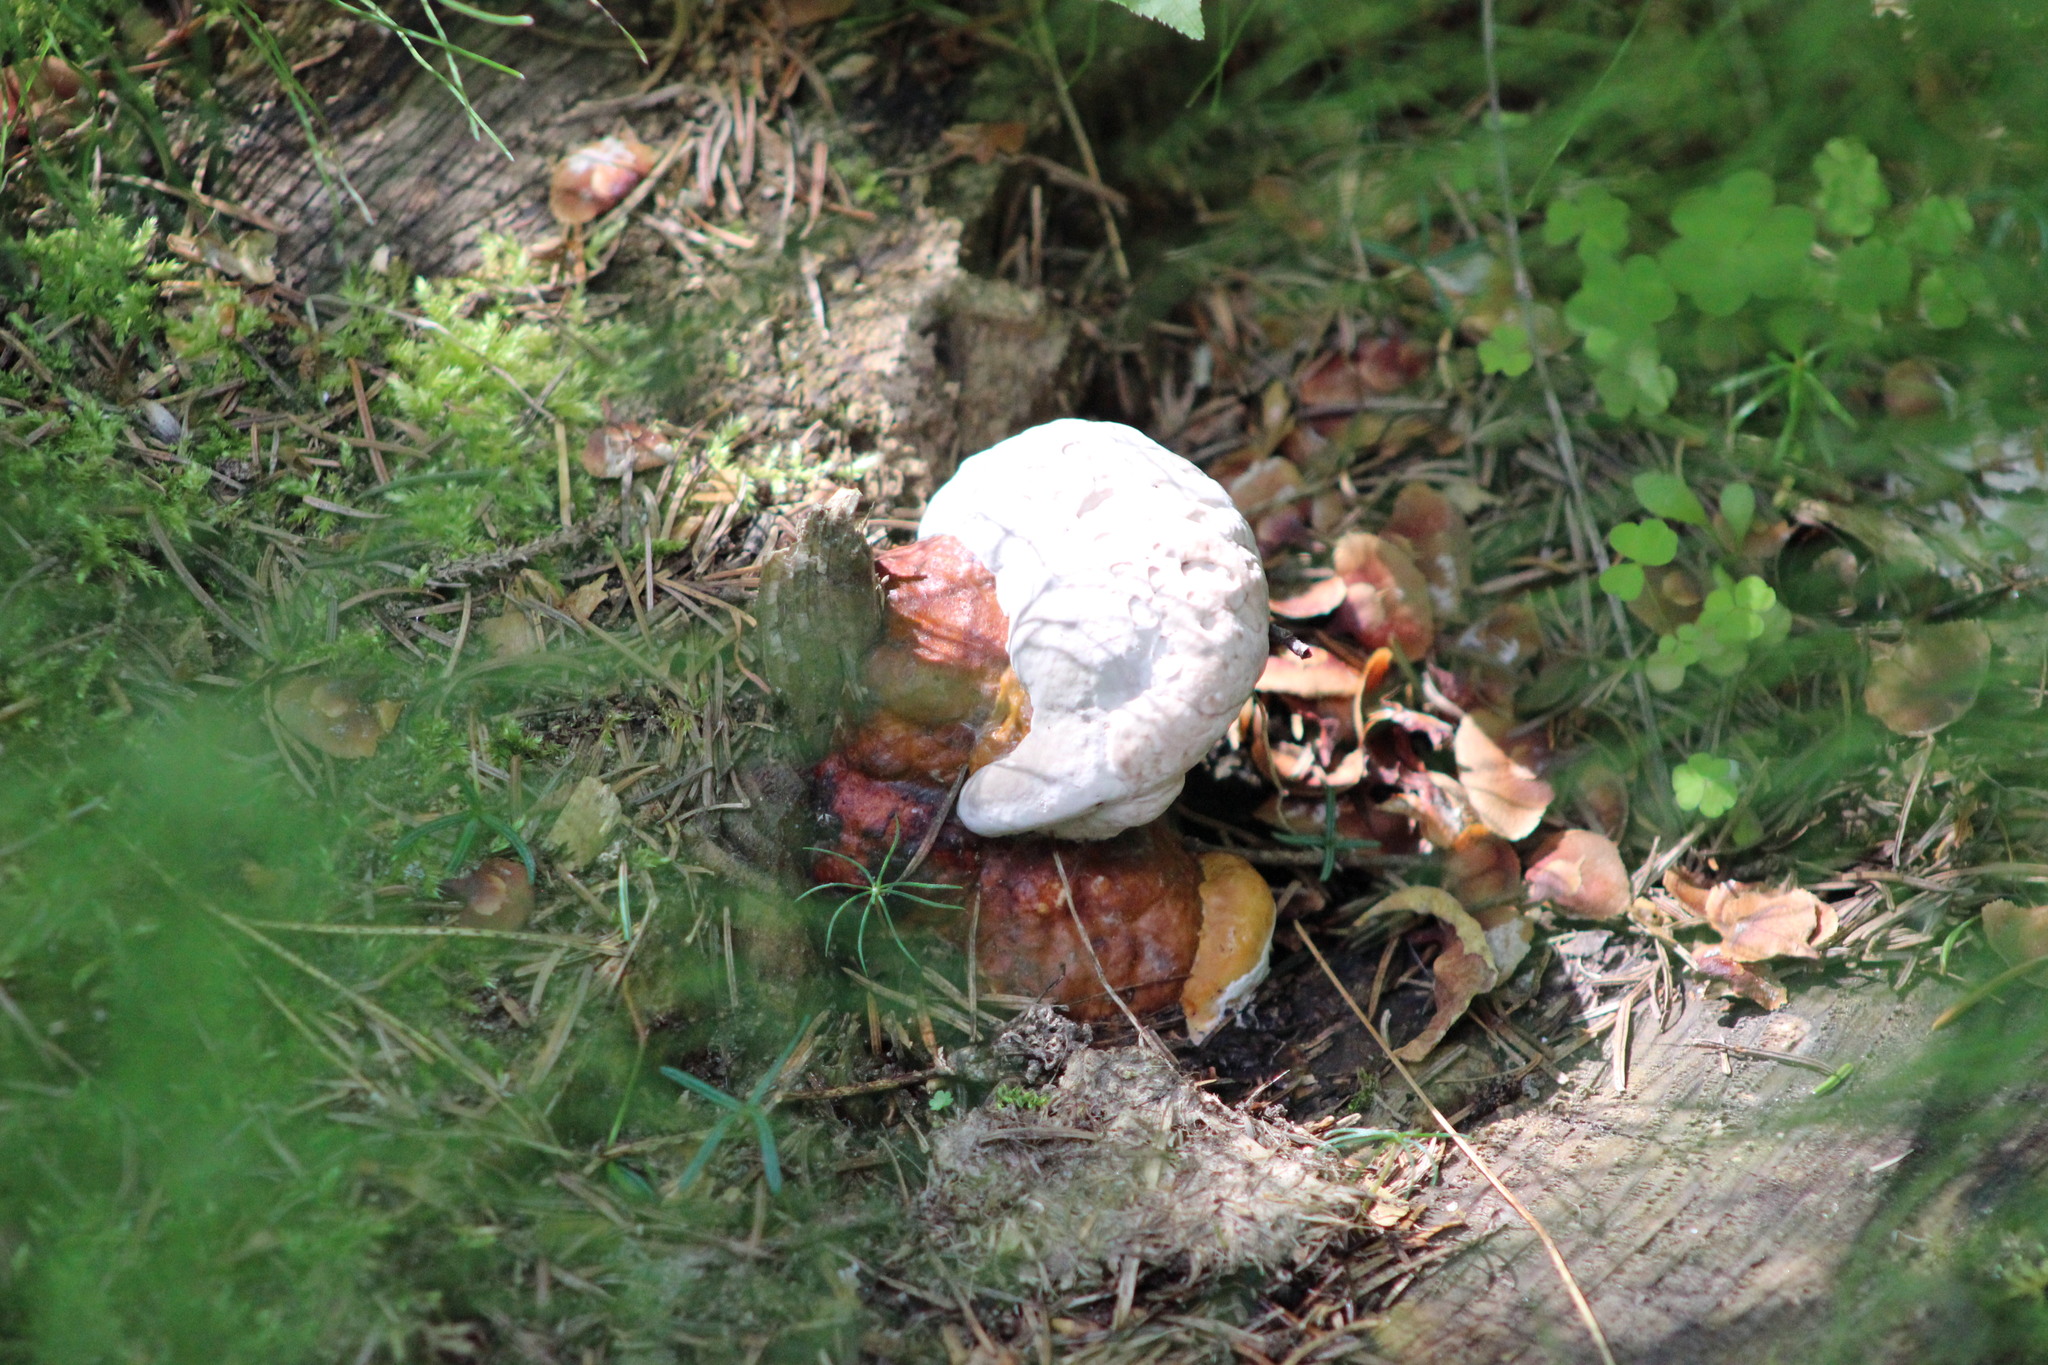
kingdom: Fungi
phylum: Basidiomycota
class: Agaricomycetes
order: Polyporales
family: Fomitopsidaceae
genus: Fomitopsis
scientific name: Fomitopsis pinicola
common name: Red-belted bracket
